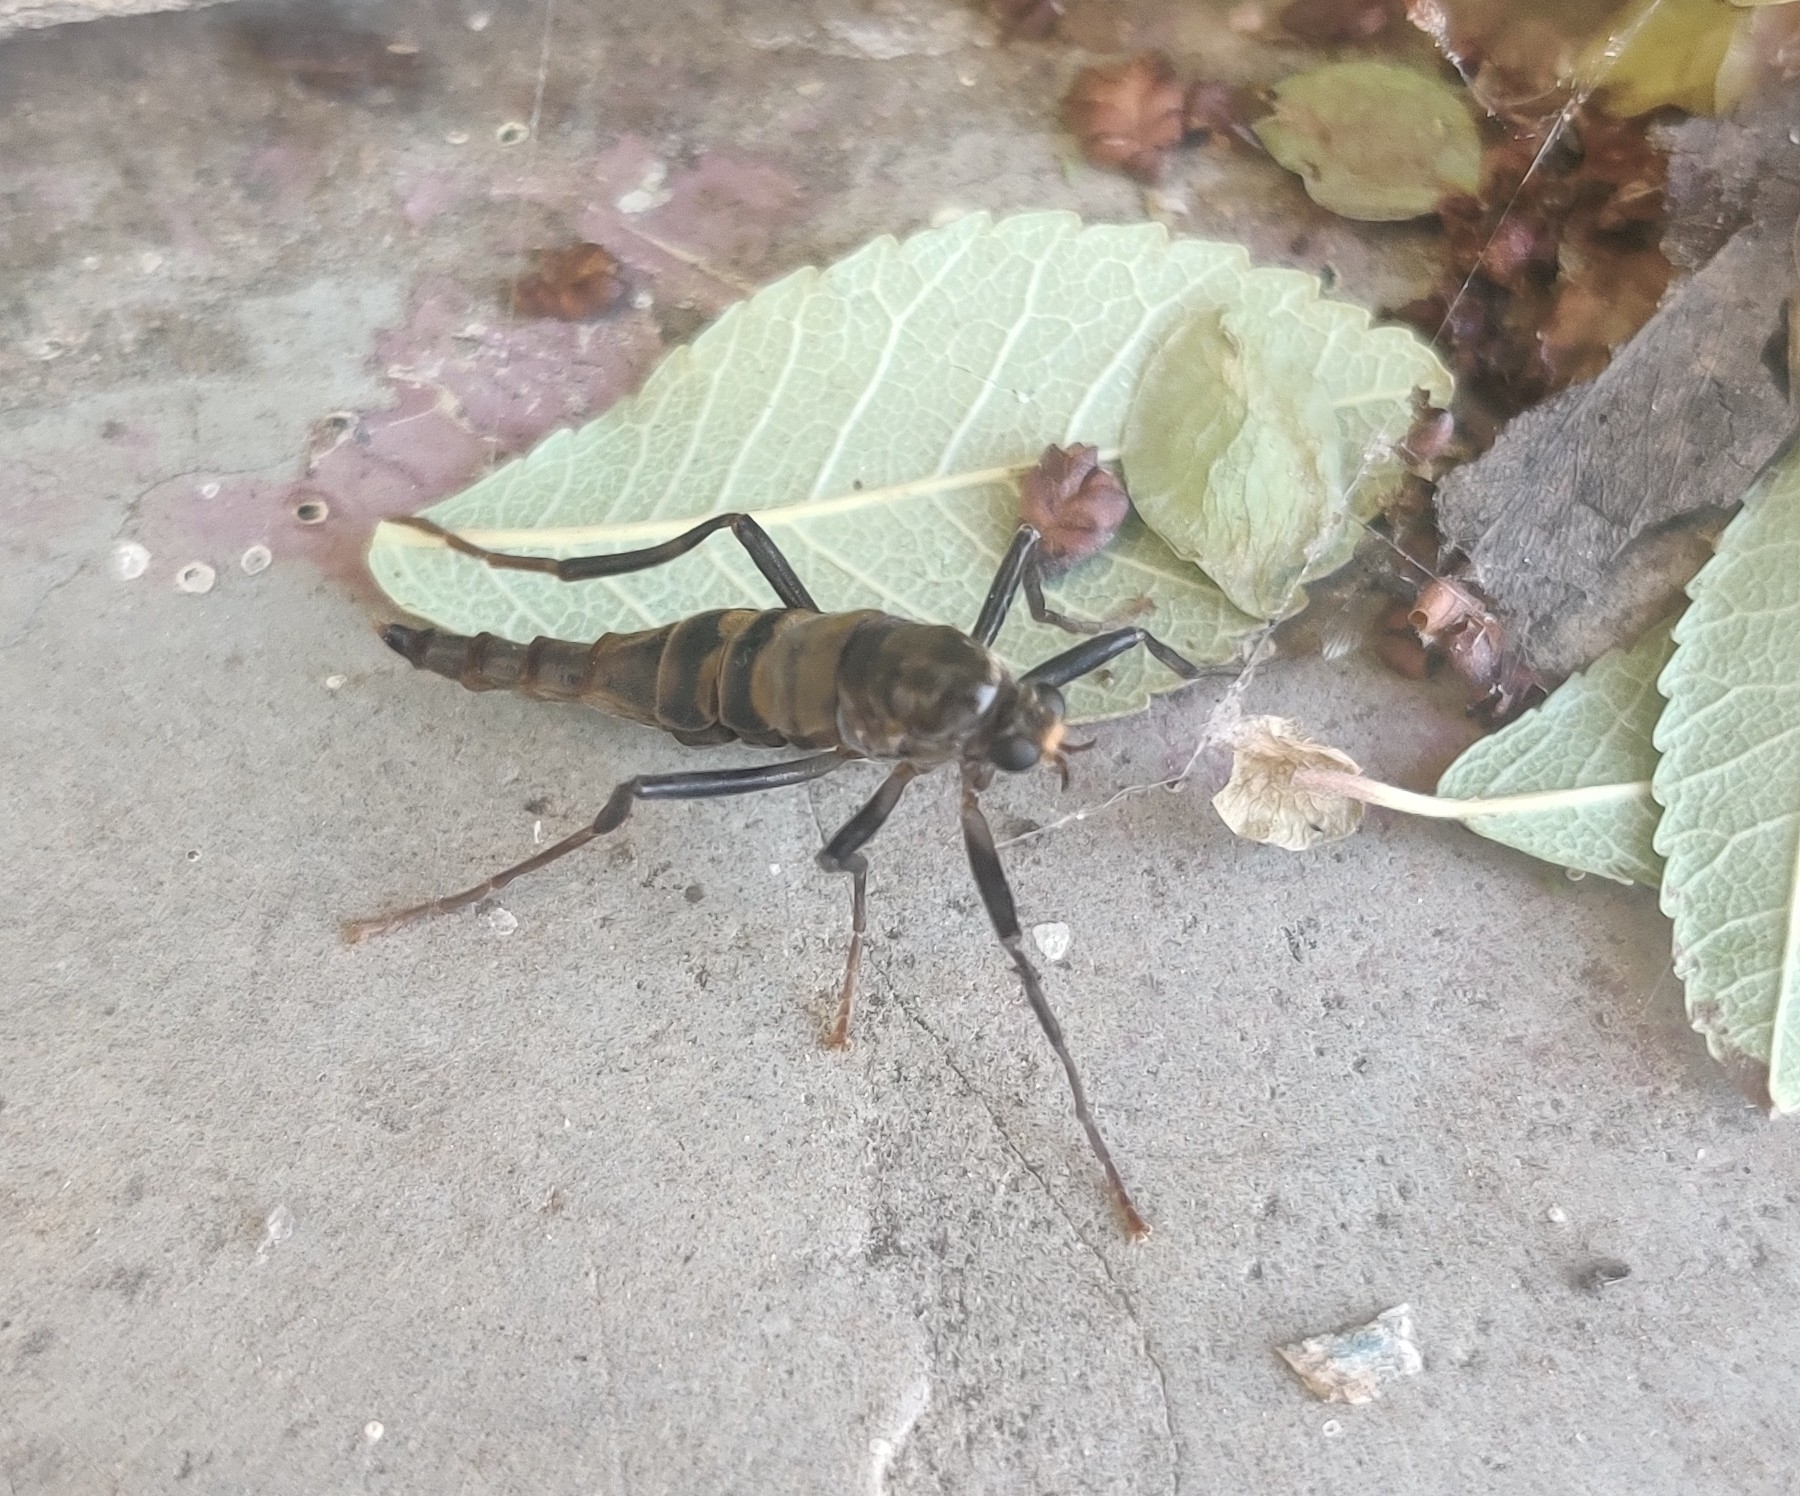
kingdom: Animalia
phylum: Arthropoda
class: Insecta
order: Diptera
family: Stratiomyidae
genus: Boreoides
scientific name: Boreoides subulatus
